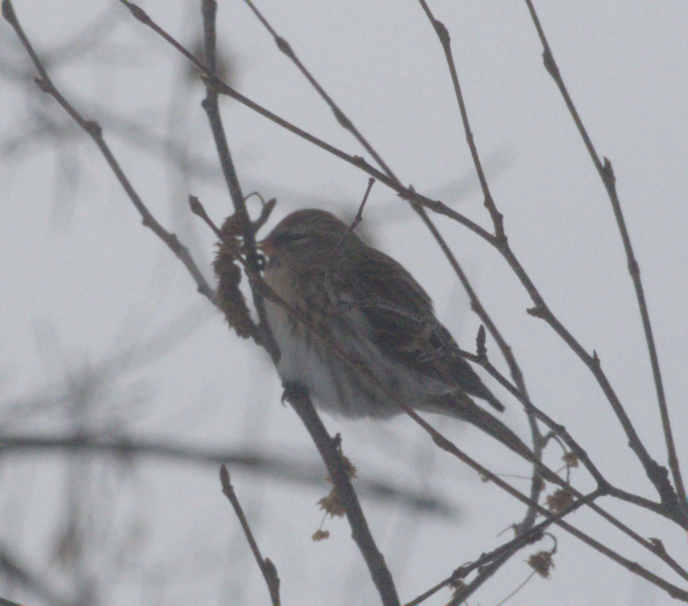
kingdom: Animalia
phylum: Chordata
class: Aves
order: Passeriformes
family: Fringillidae
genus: Acanthis
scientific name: Acanthis flammea
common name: Common redpoll
